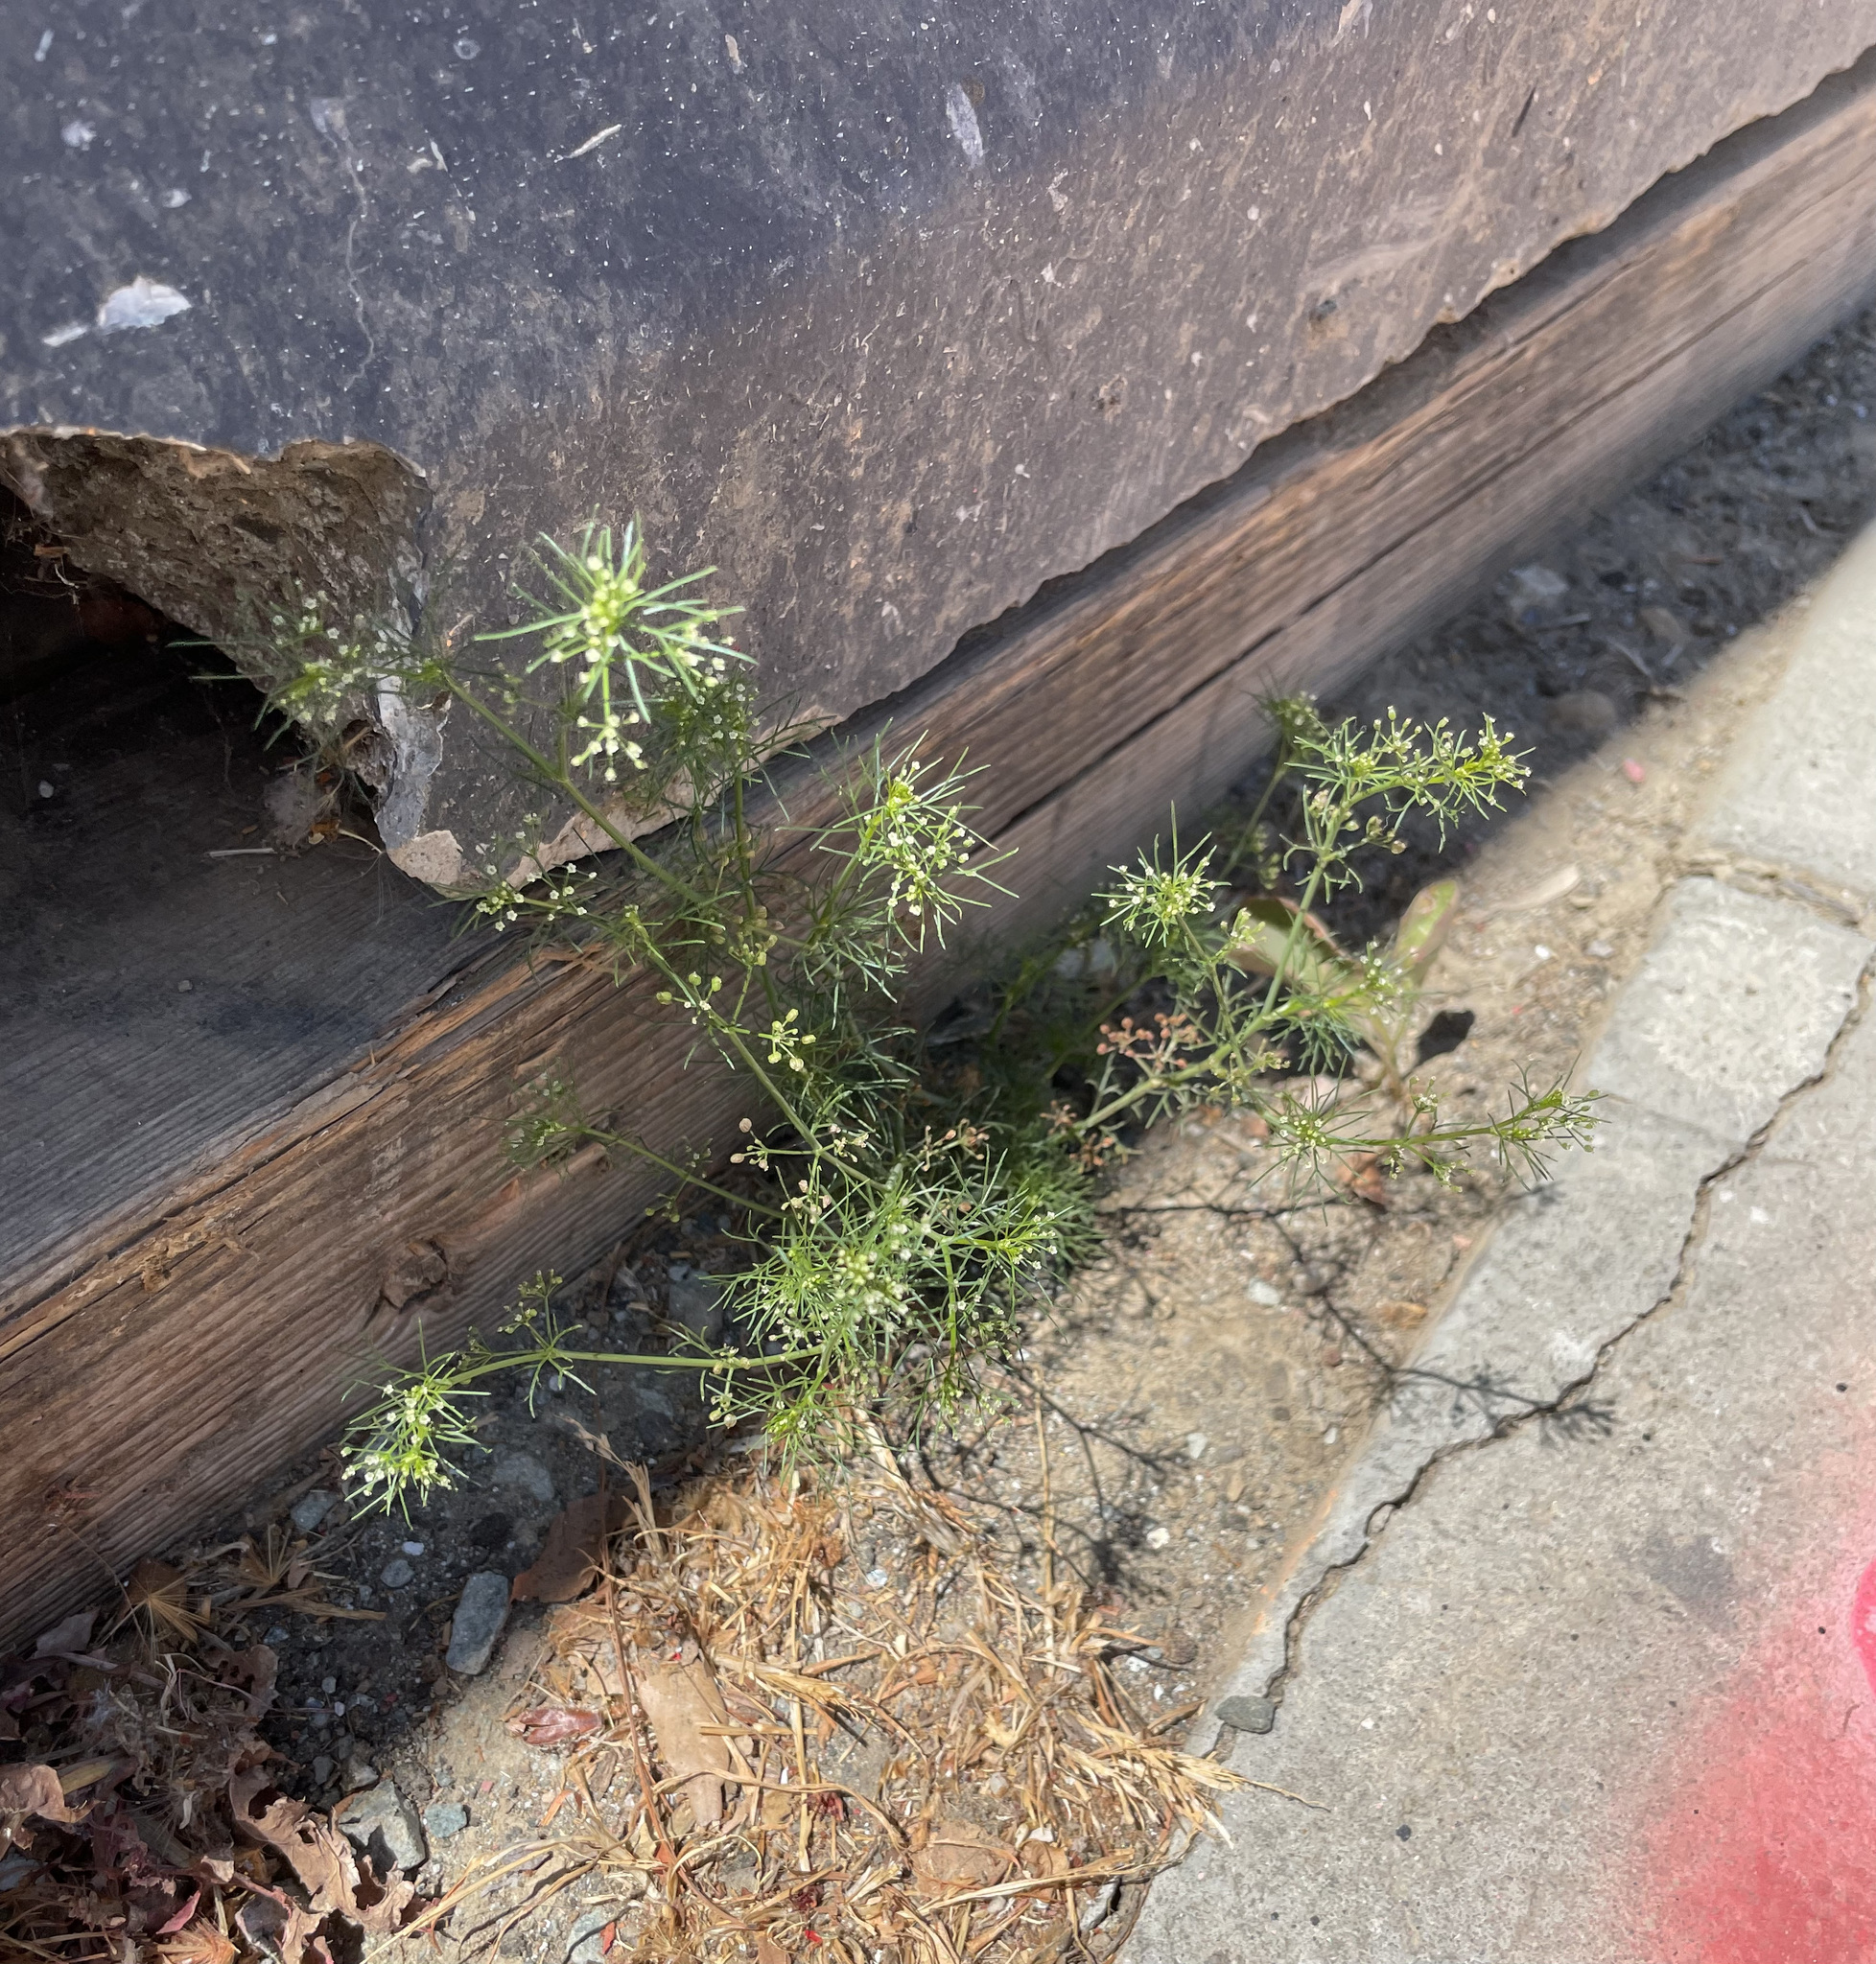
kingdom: Plantae
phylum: Tracheophyta
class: Magnoliopsida
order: Apiales
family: Apiaceae
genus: Cyclospermum
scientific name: Cyclospermum leptophyllum
